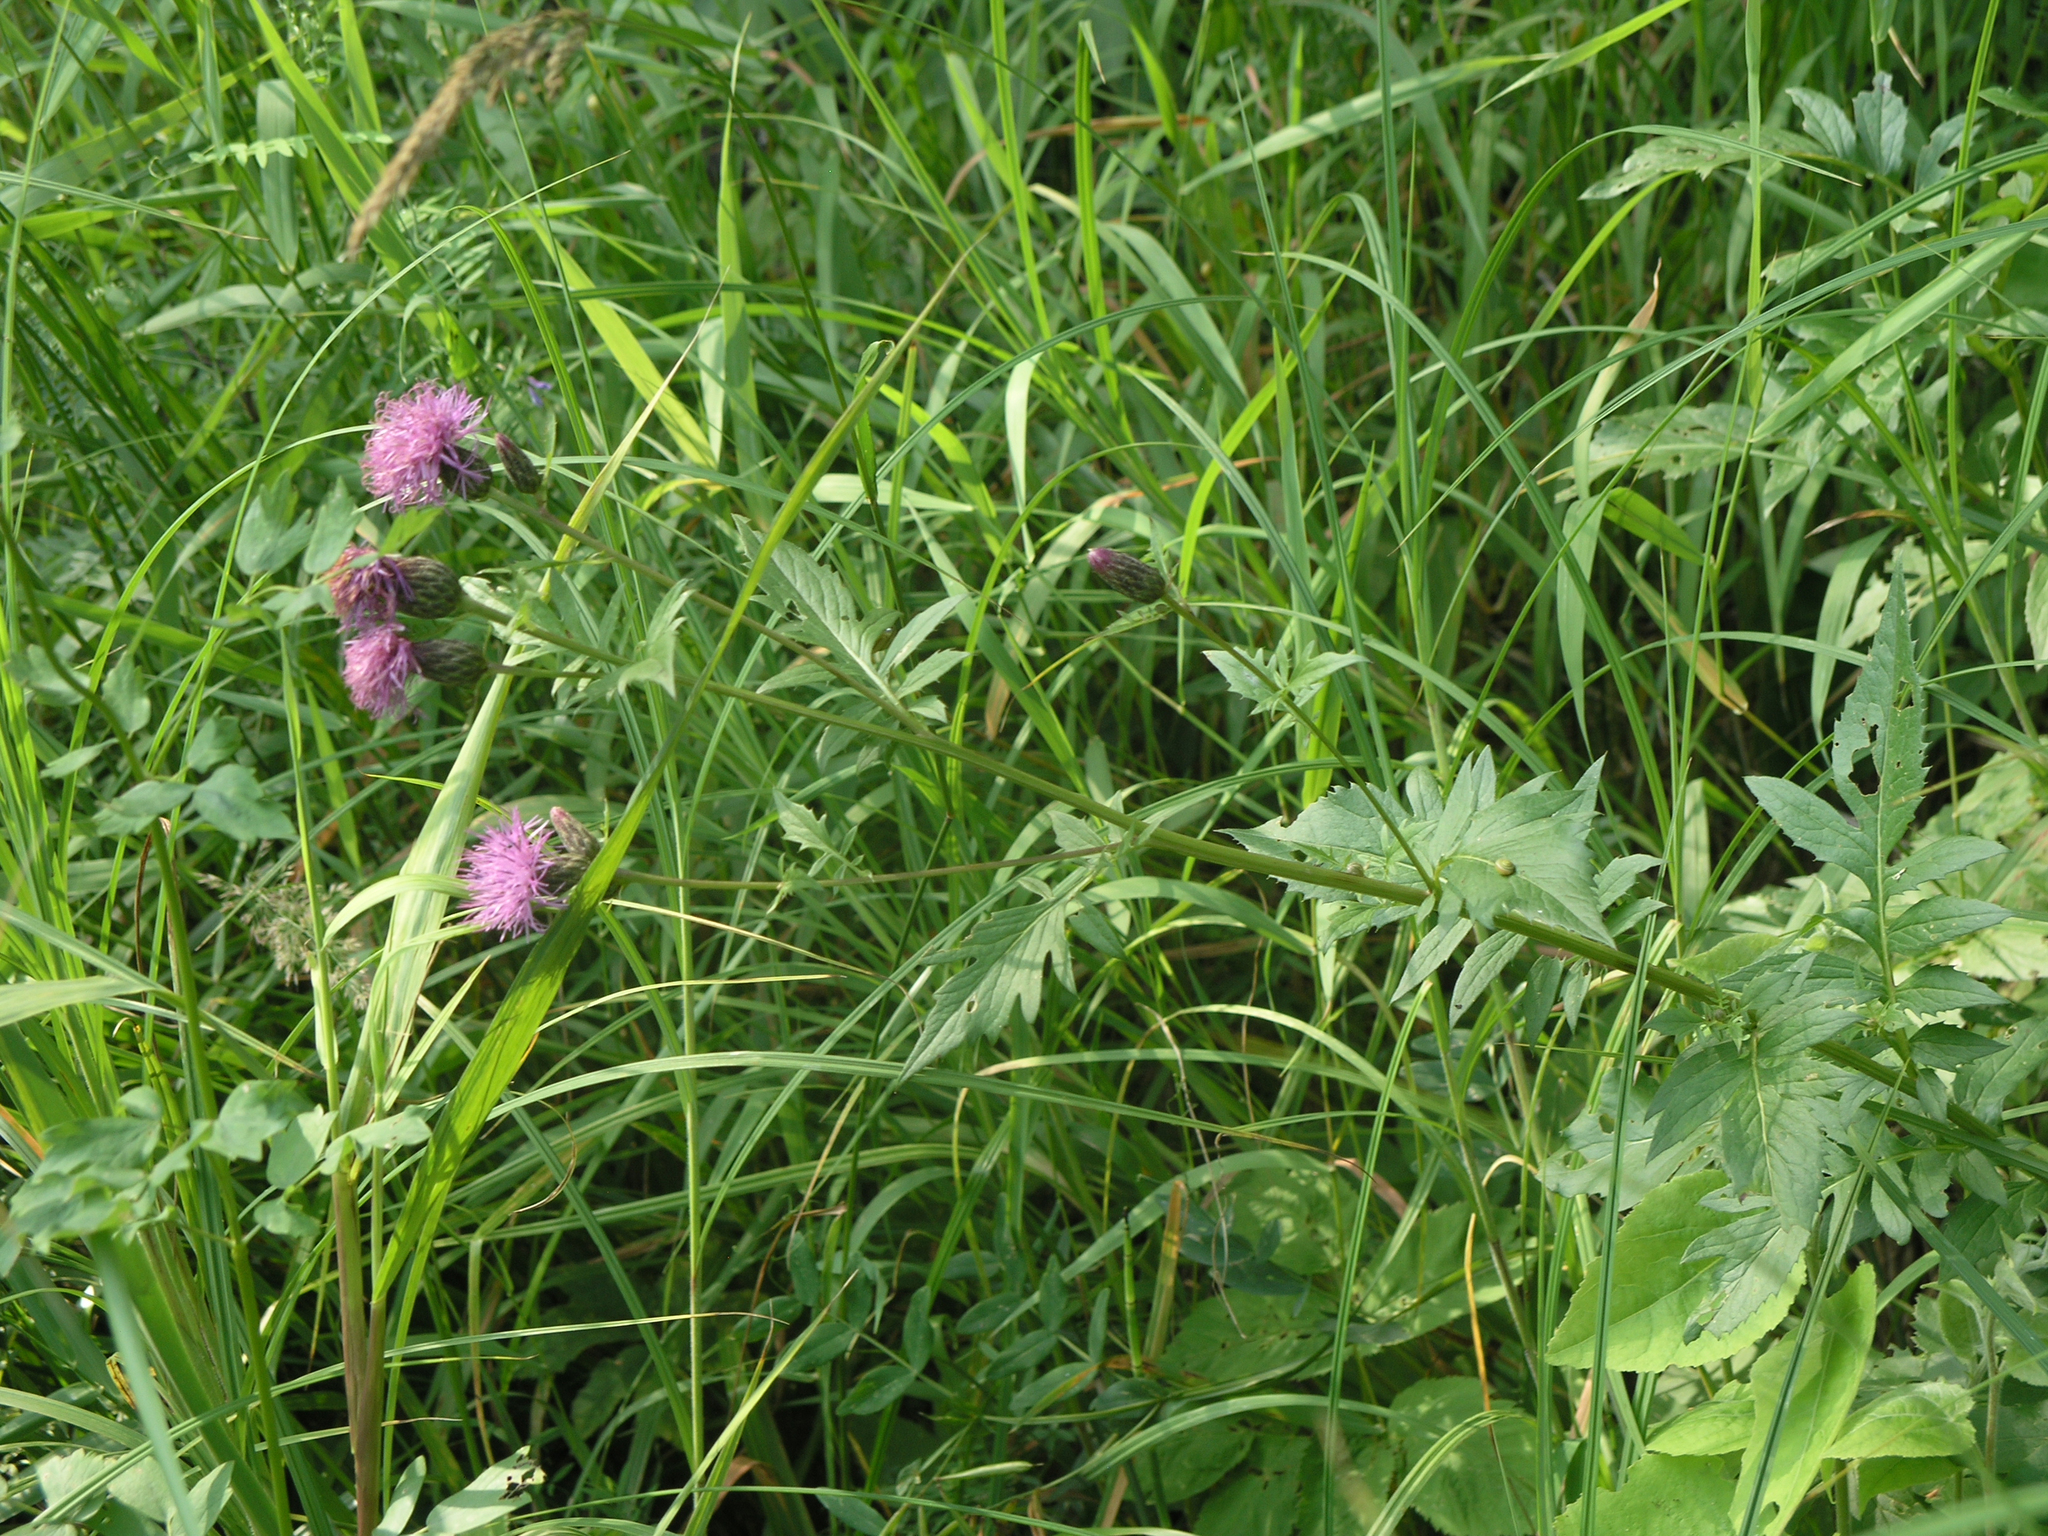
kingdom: Plantae
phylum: Tracheophyta
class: Magnoliopsida
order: Asterales
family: Asteraceae
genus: Serratula
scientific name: Serratula coronata
